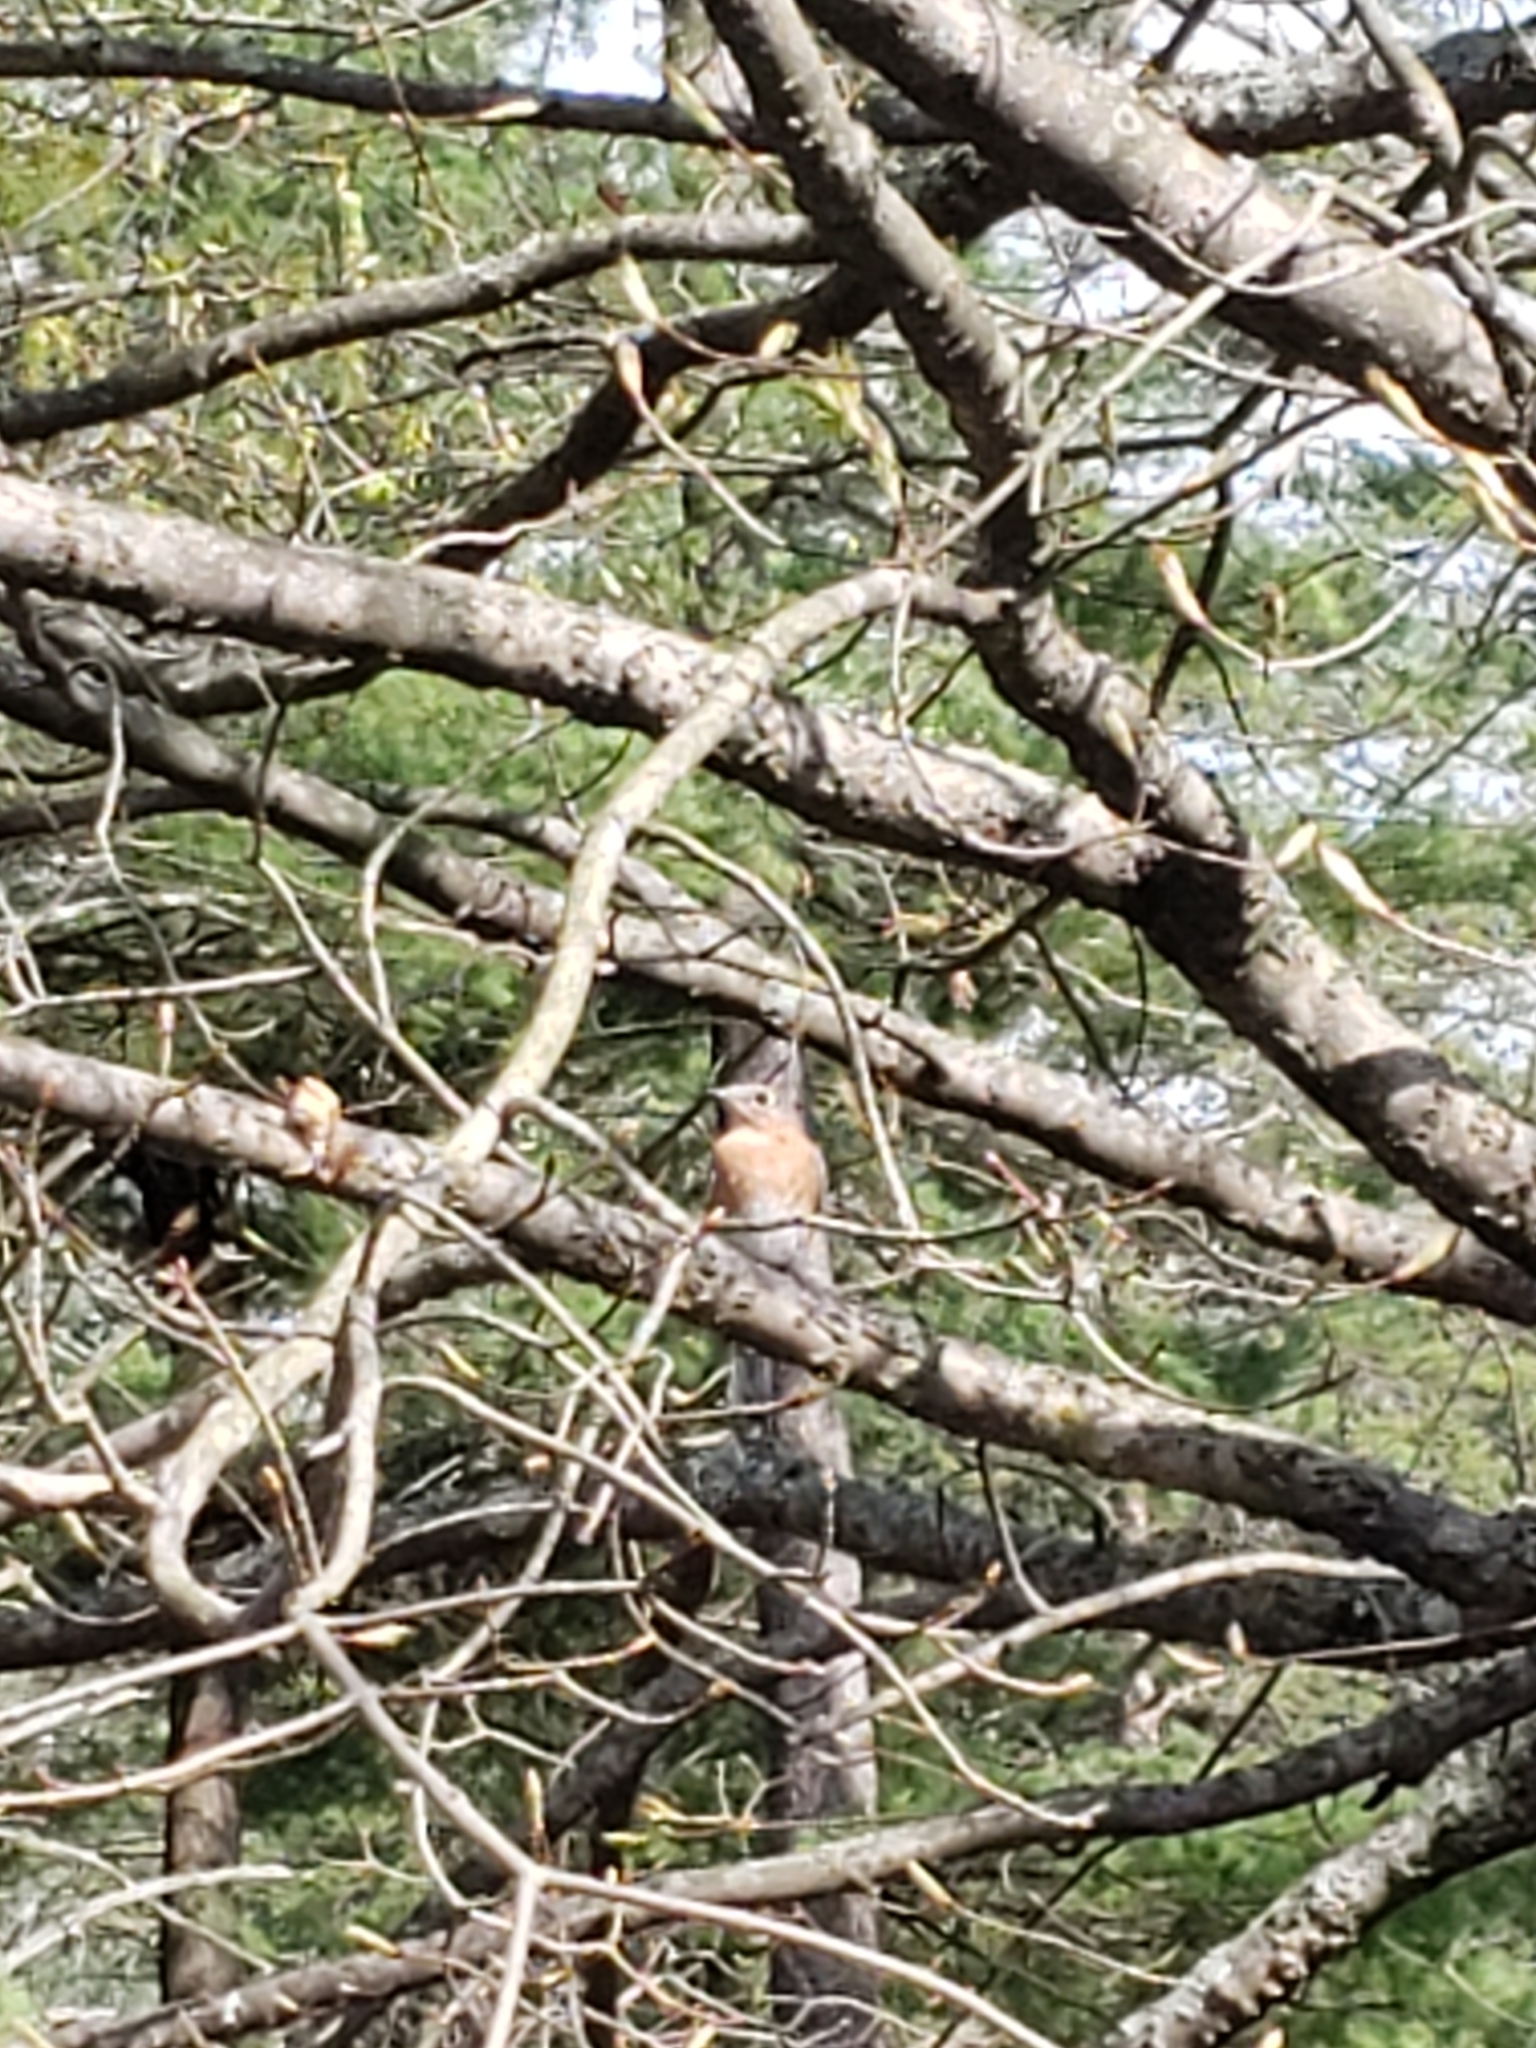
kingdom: Animalia
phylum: Chordata
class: Aves
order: Passeriformes
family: Turdidae
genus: Sialia
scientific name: Sialia sialis
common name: Eastern bluebird
